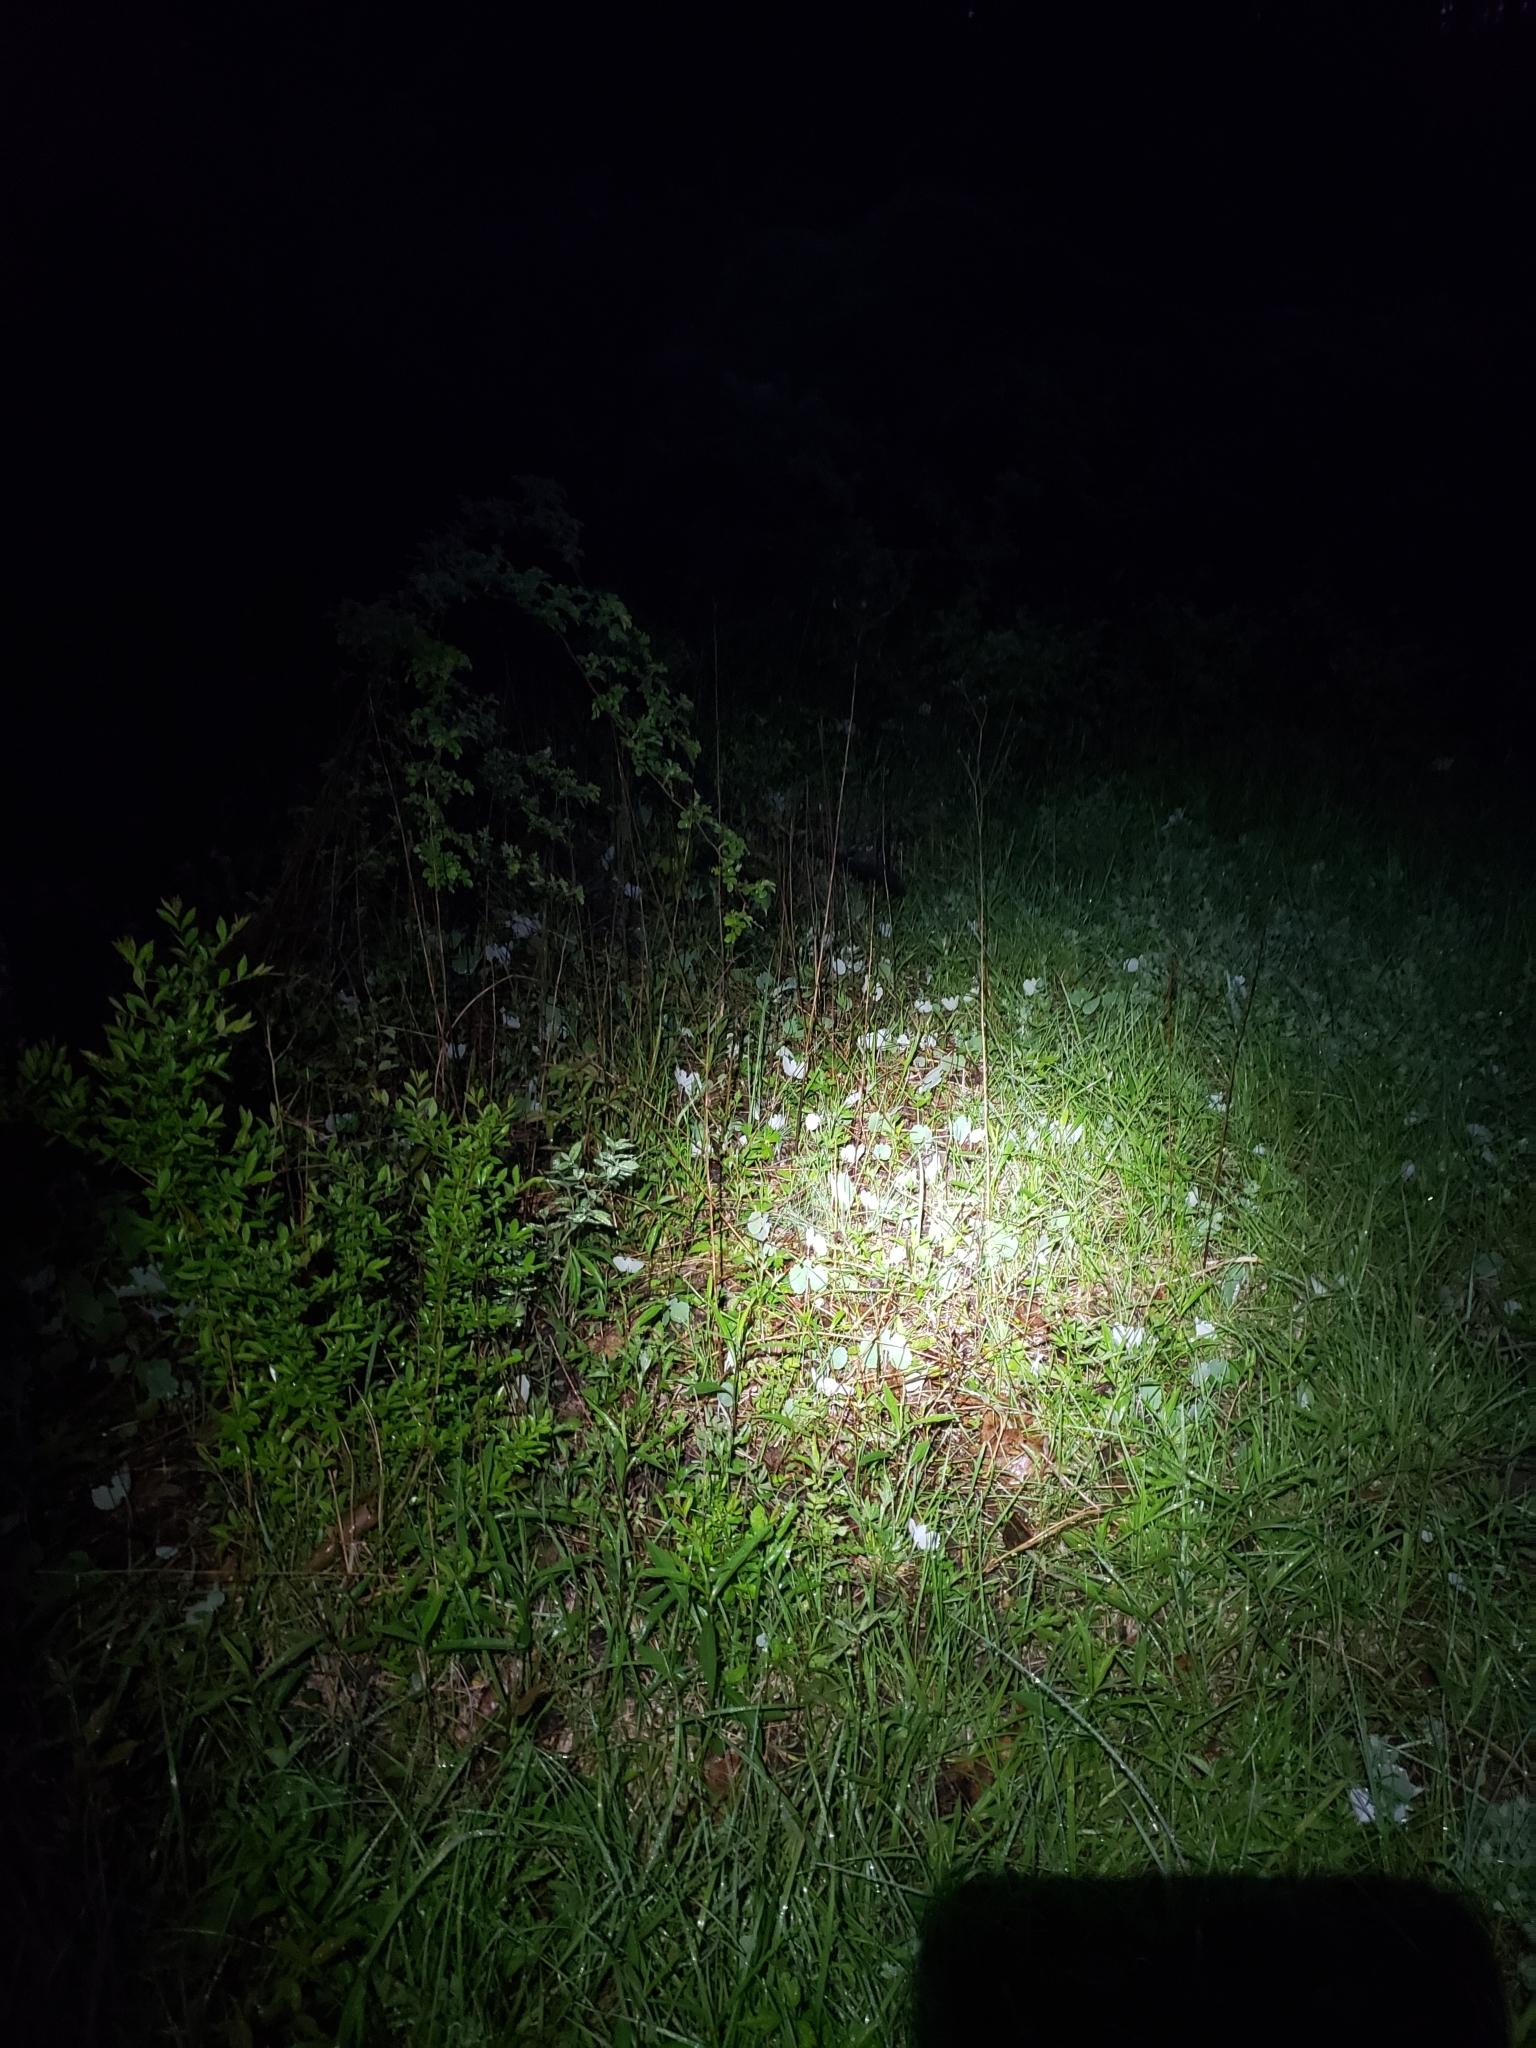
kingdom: Plantae
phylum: Tracheophyta
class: Magnoliopsida
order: Ranunculales
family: Papaveraceae
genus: Sanguinaria
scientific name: Sanguinaria canadensis
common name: Bloodroot
